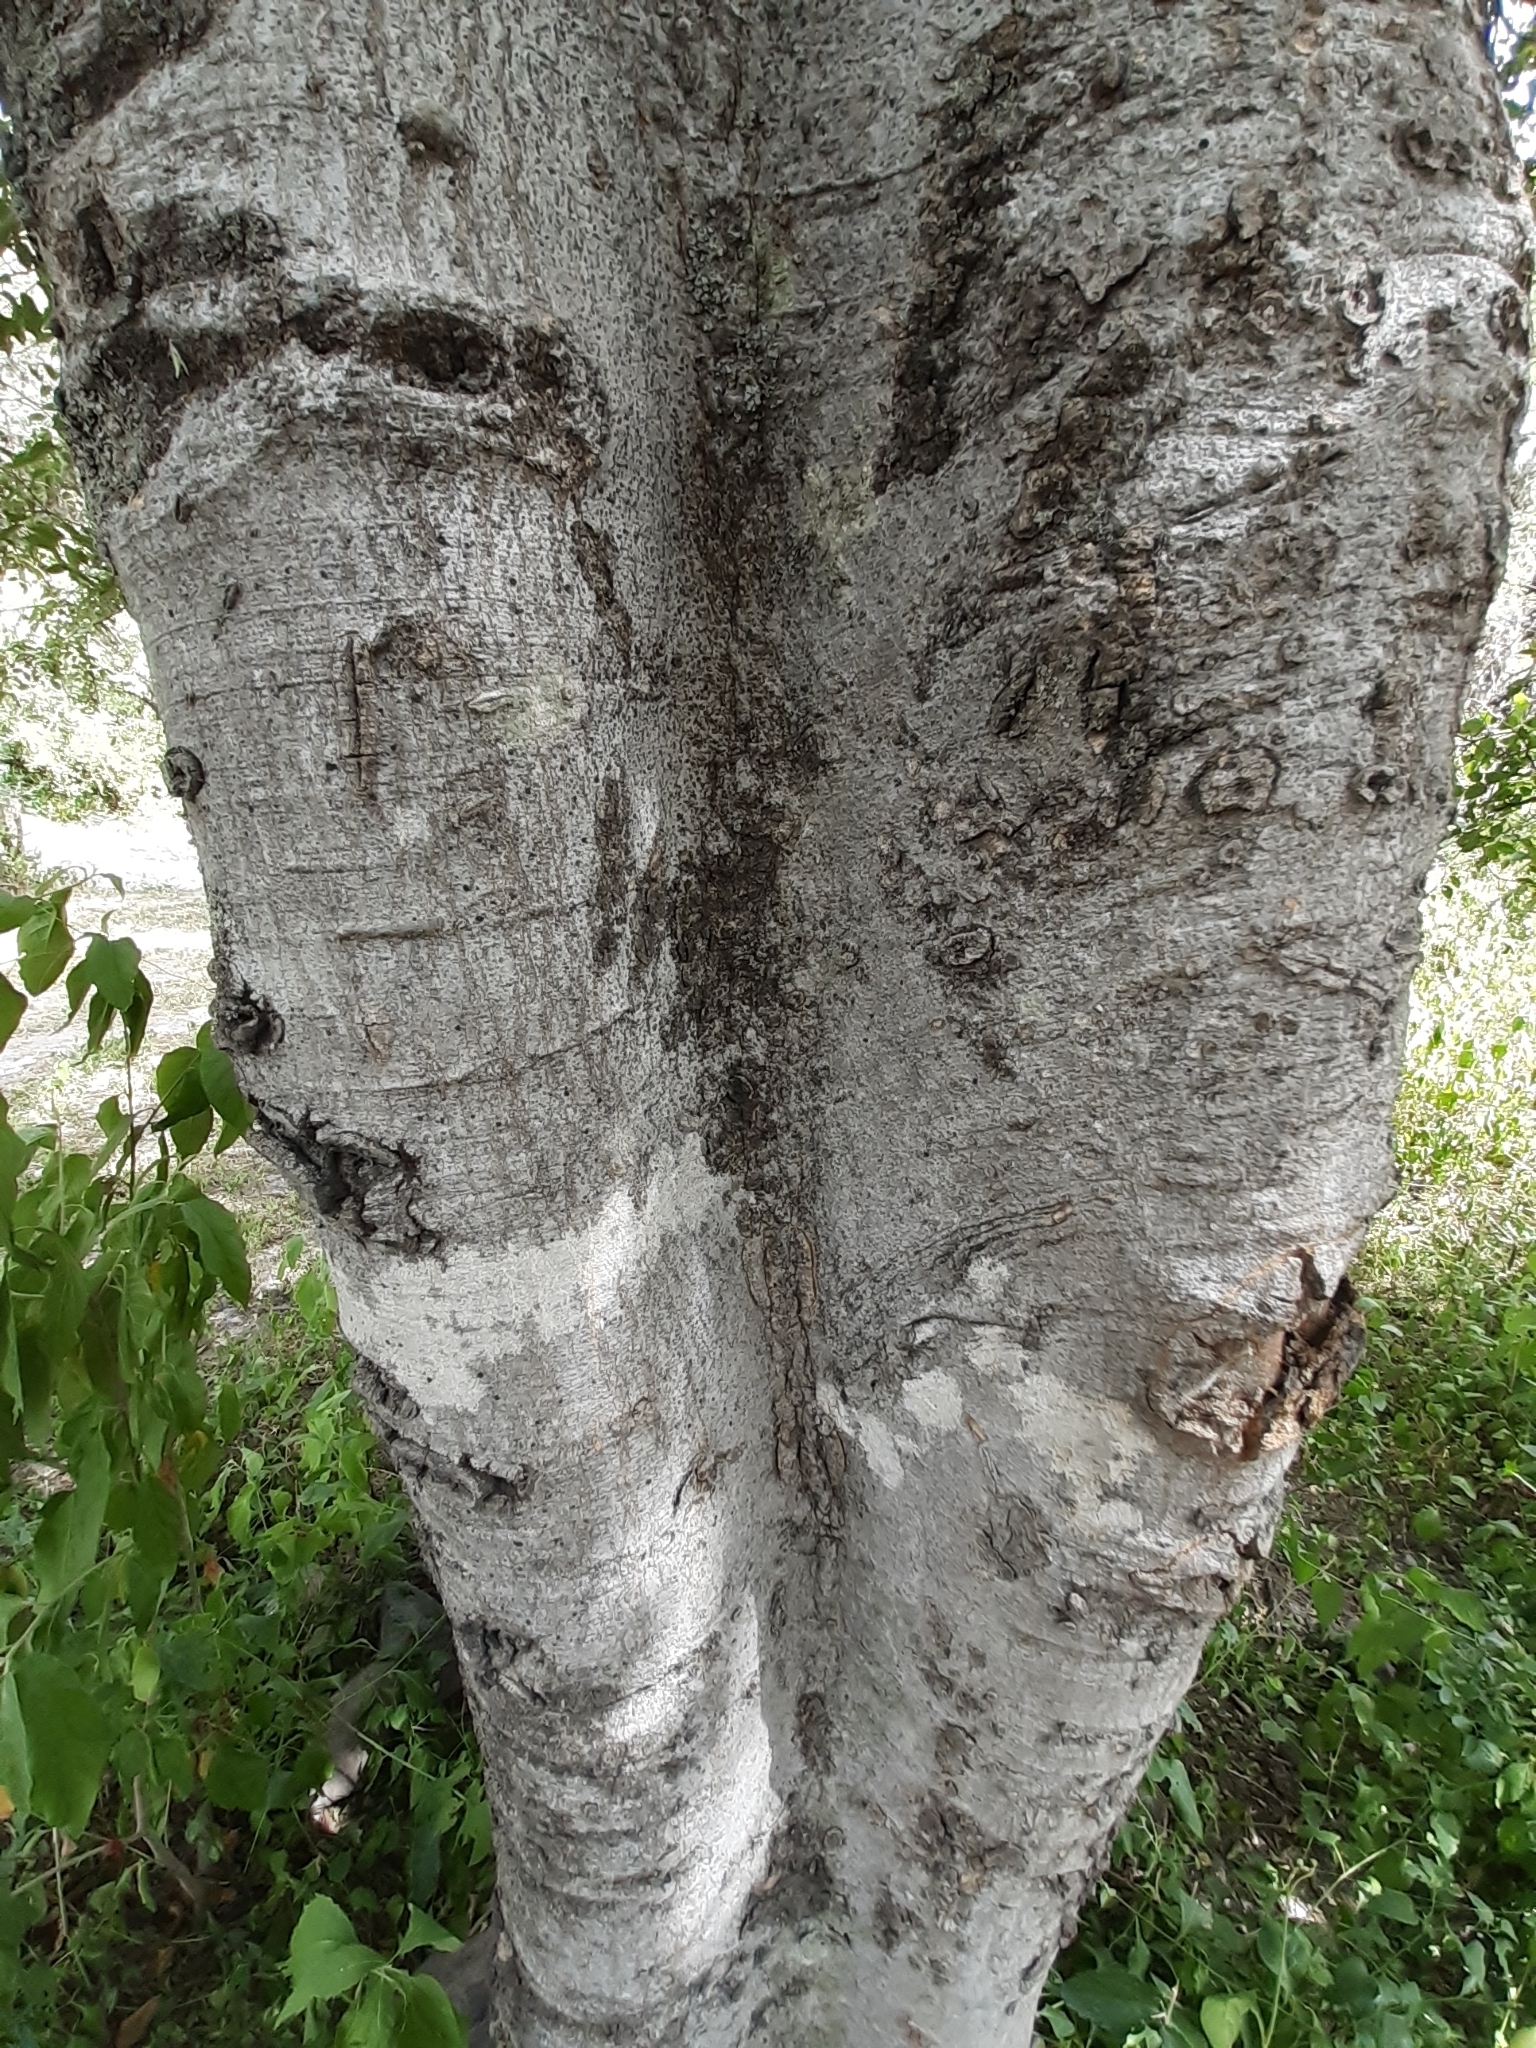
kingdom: Plantae
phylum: Tracheophyta
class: Magnoliopsida
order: Rosales
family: Cannabaceae
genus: Celtis
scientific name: Celtis pallida
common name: Desert hackberry
